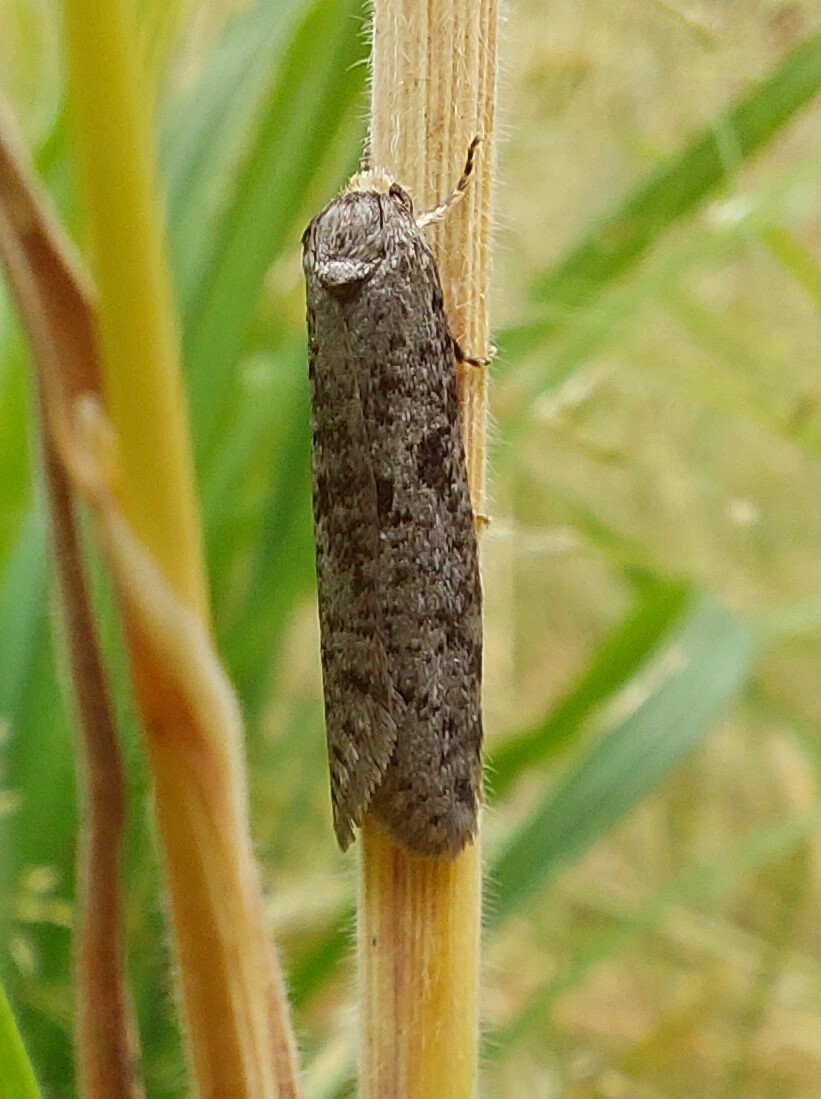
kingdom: Animalia
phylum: Arthropoda
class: Insecta
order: Lepidoptera
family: Psychidae
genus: Lepidoscia
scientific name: Lepidoscia protorna
